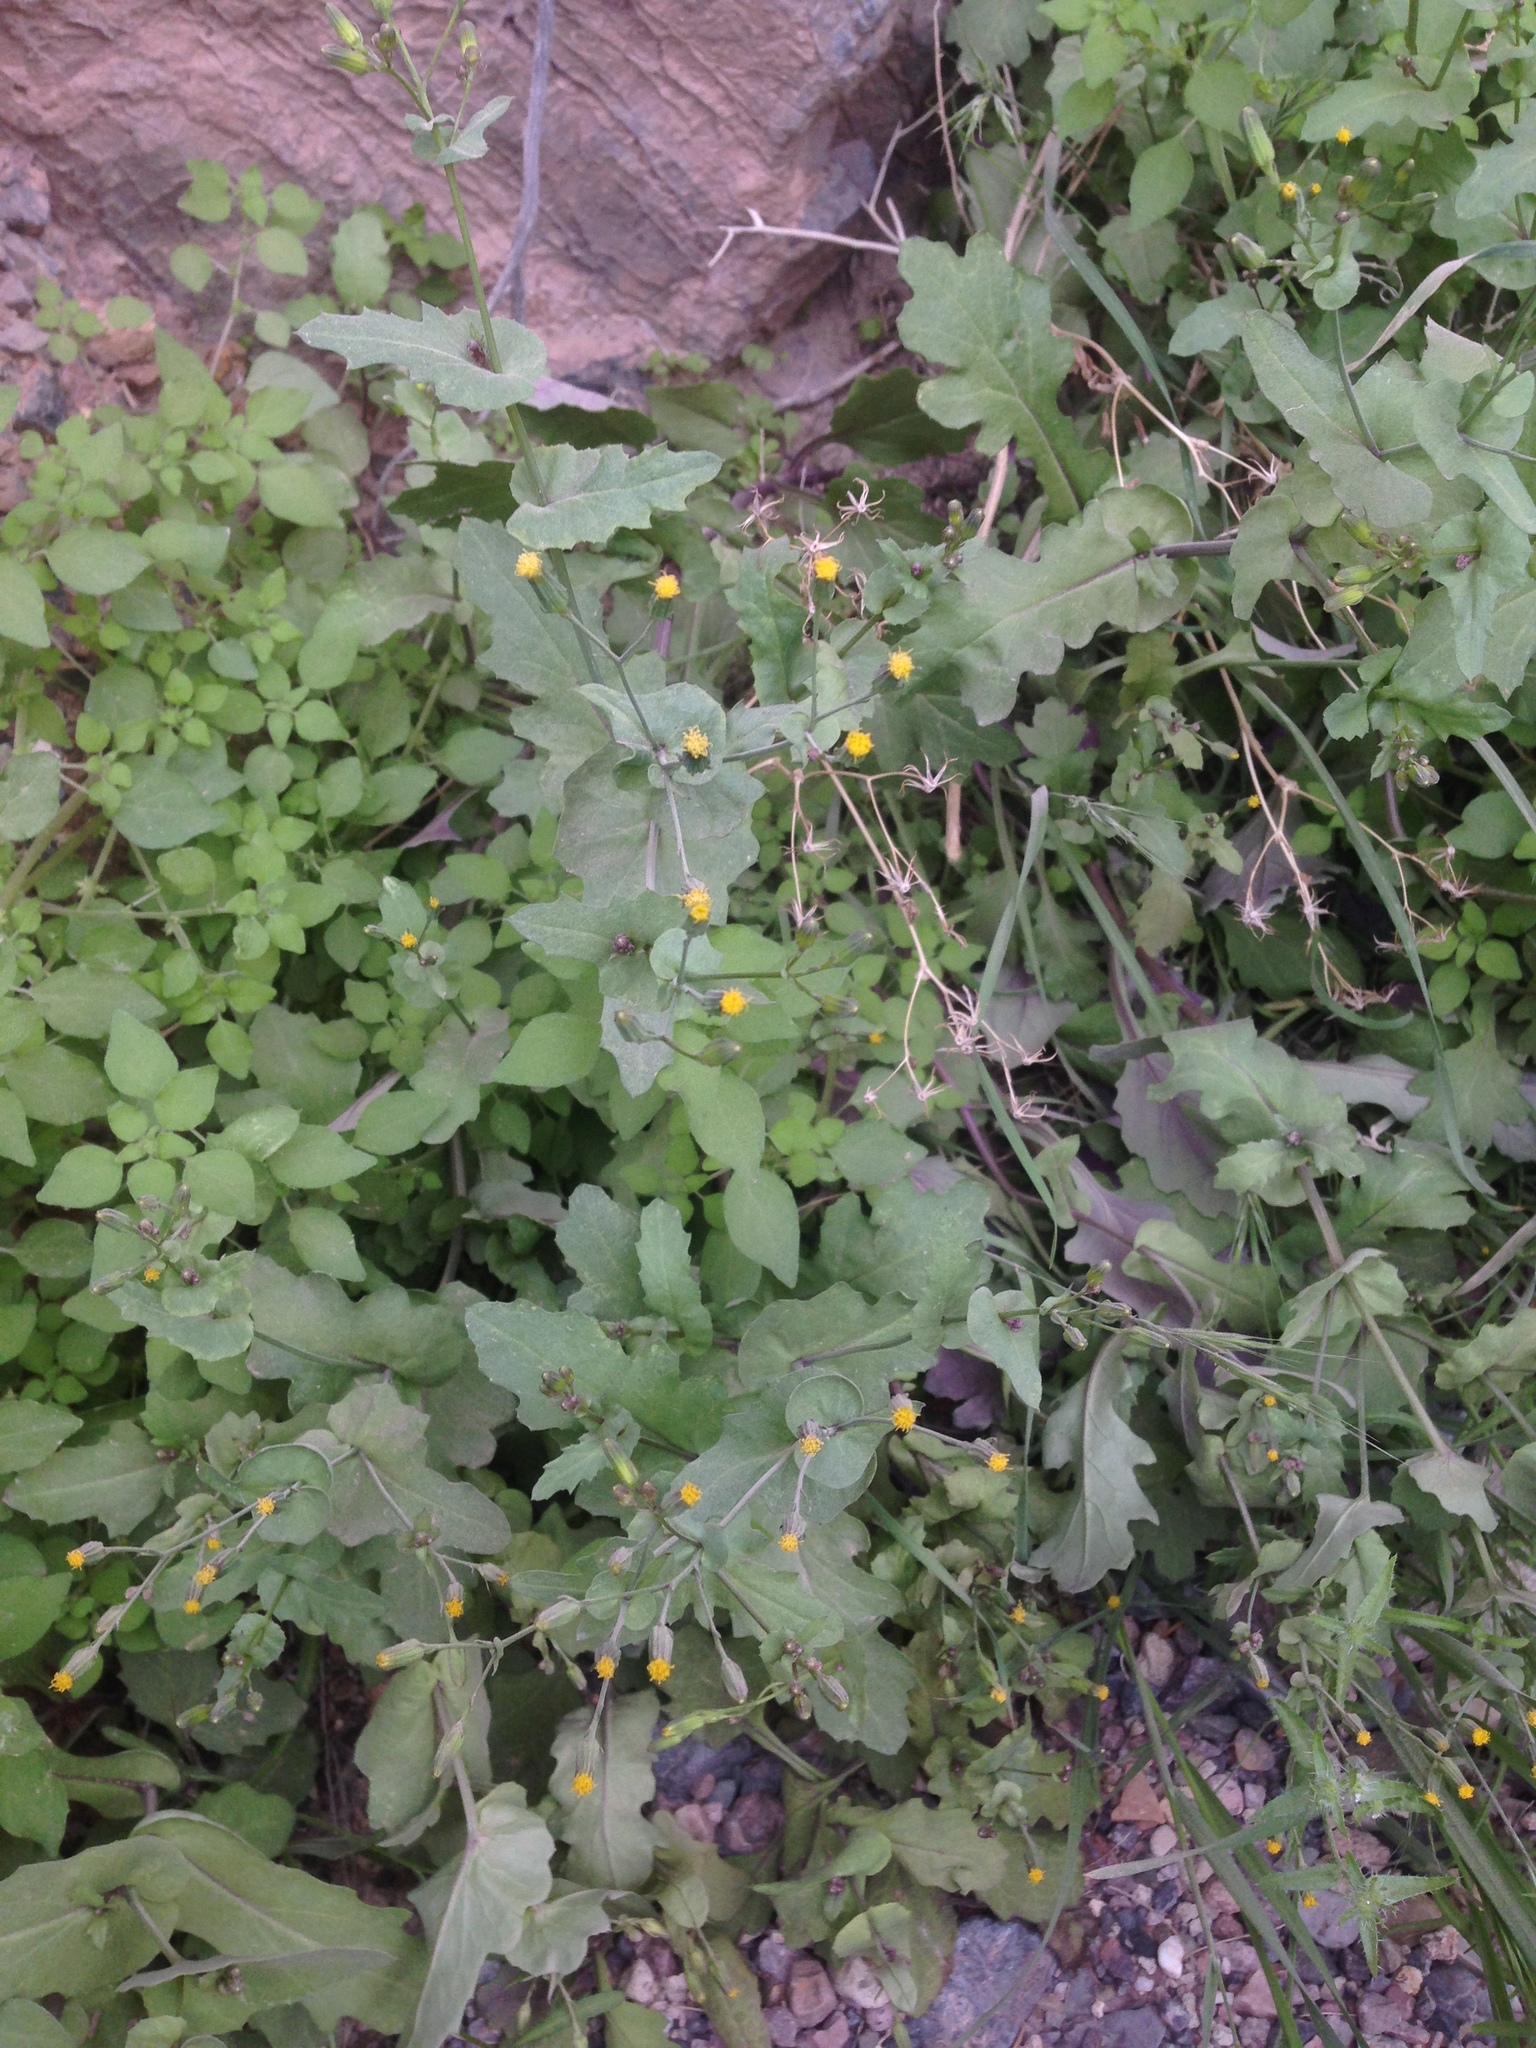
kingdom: Plantae
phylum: Tracheophyta
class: Magnoliopsida
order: Asterales
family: Asteraceae
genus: Senecio
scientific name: Senecio mohavensis
